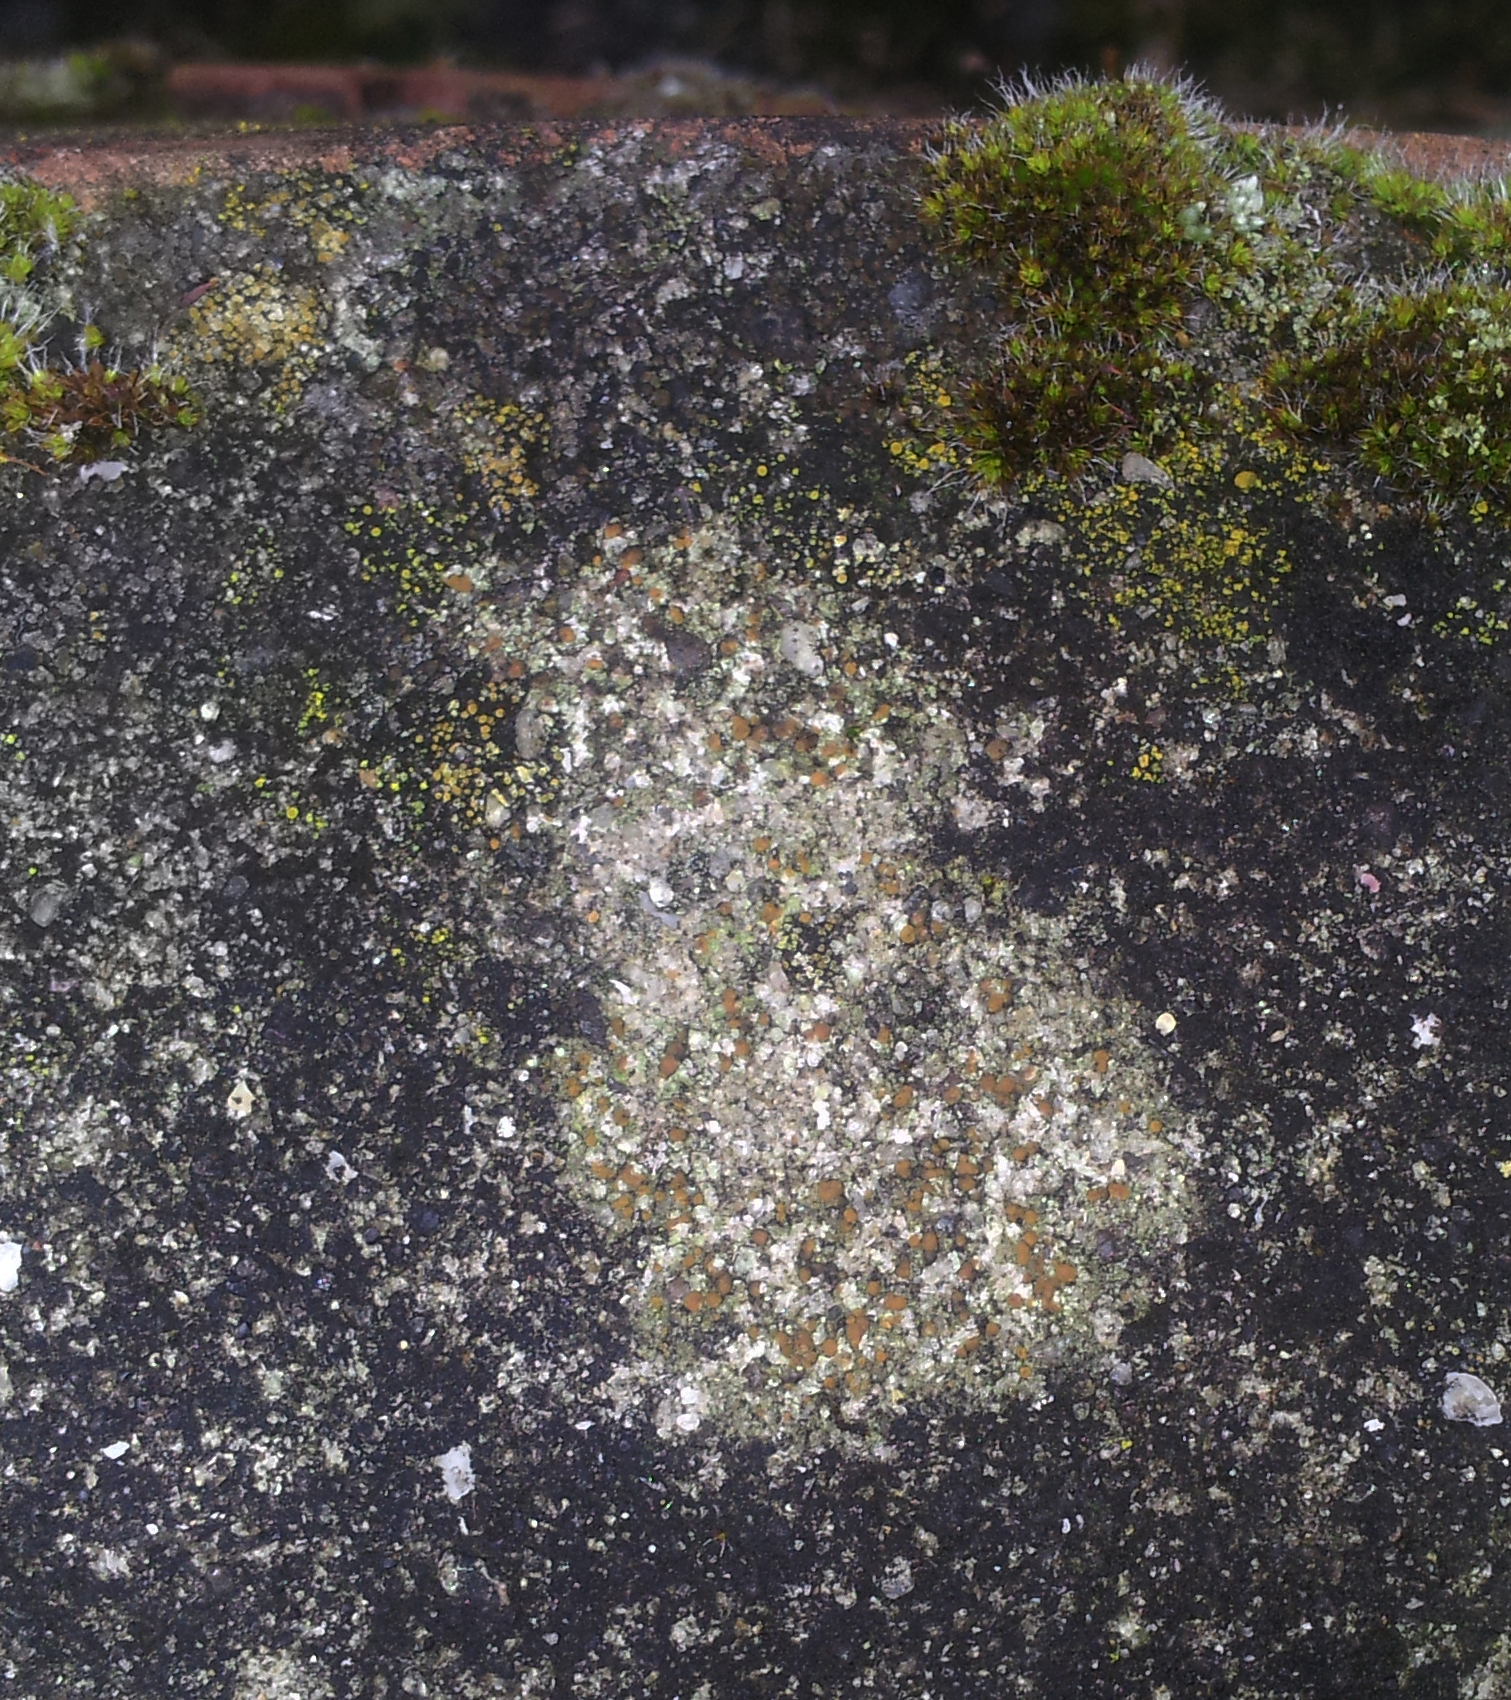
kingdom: Fungi
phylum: Ascomycota
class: Lecanoromycetes
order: Lecanorales
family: Psoraceae
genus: Protoblastenia
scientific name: Protoblastenia rupestris
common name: Chewing gum lichen
